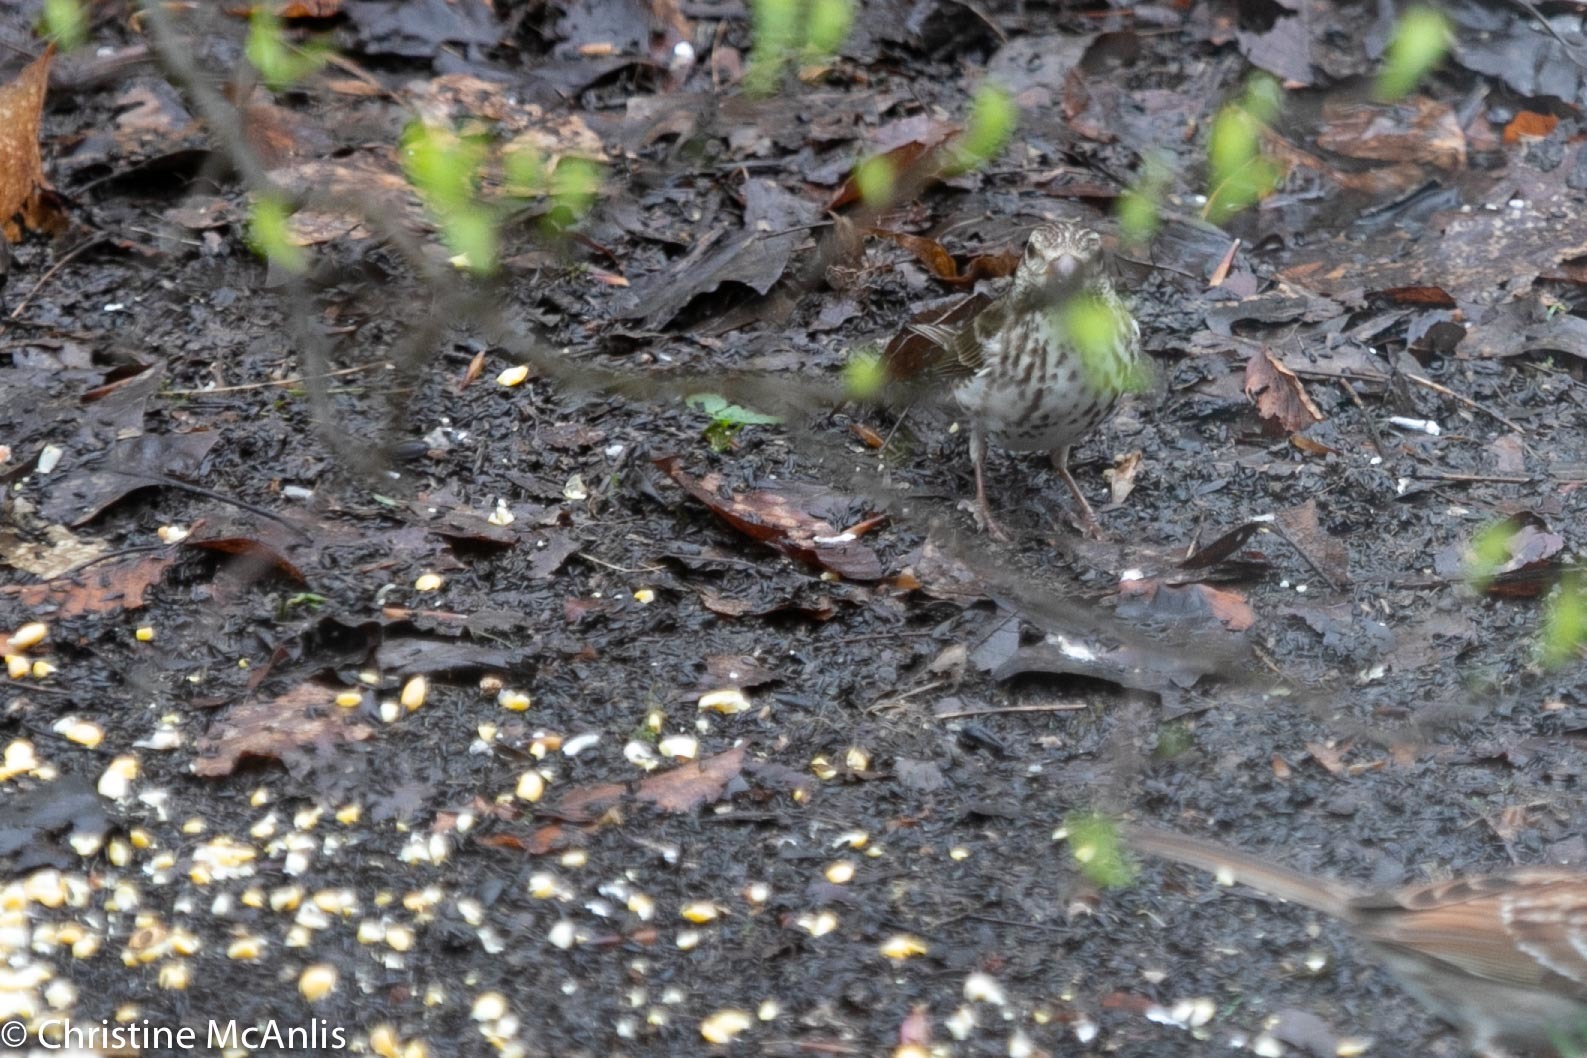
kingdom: Animalia
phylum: Chordata
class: Aves
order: Passeriformes
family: Fringillidae
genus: Haemorhous
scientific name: Haemorhous purpureus
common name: Purple finch
